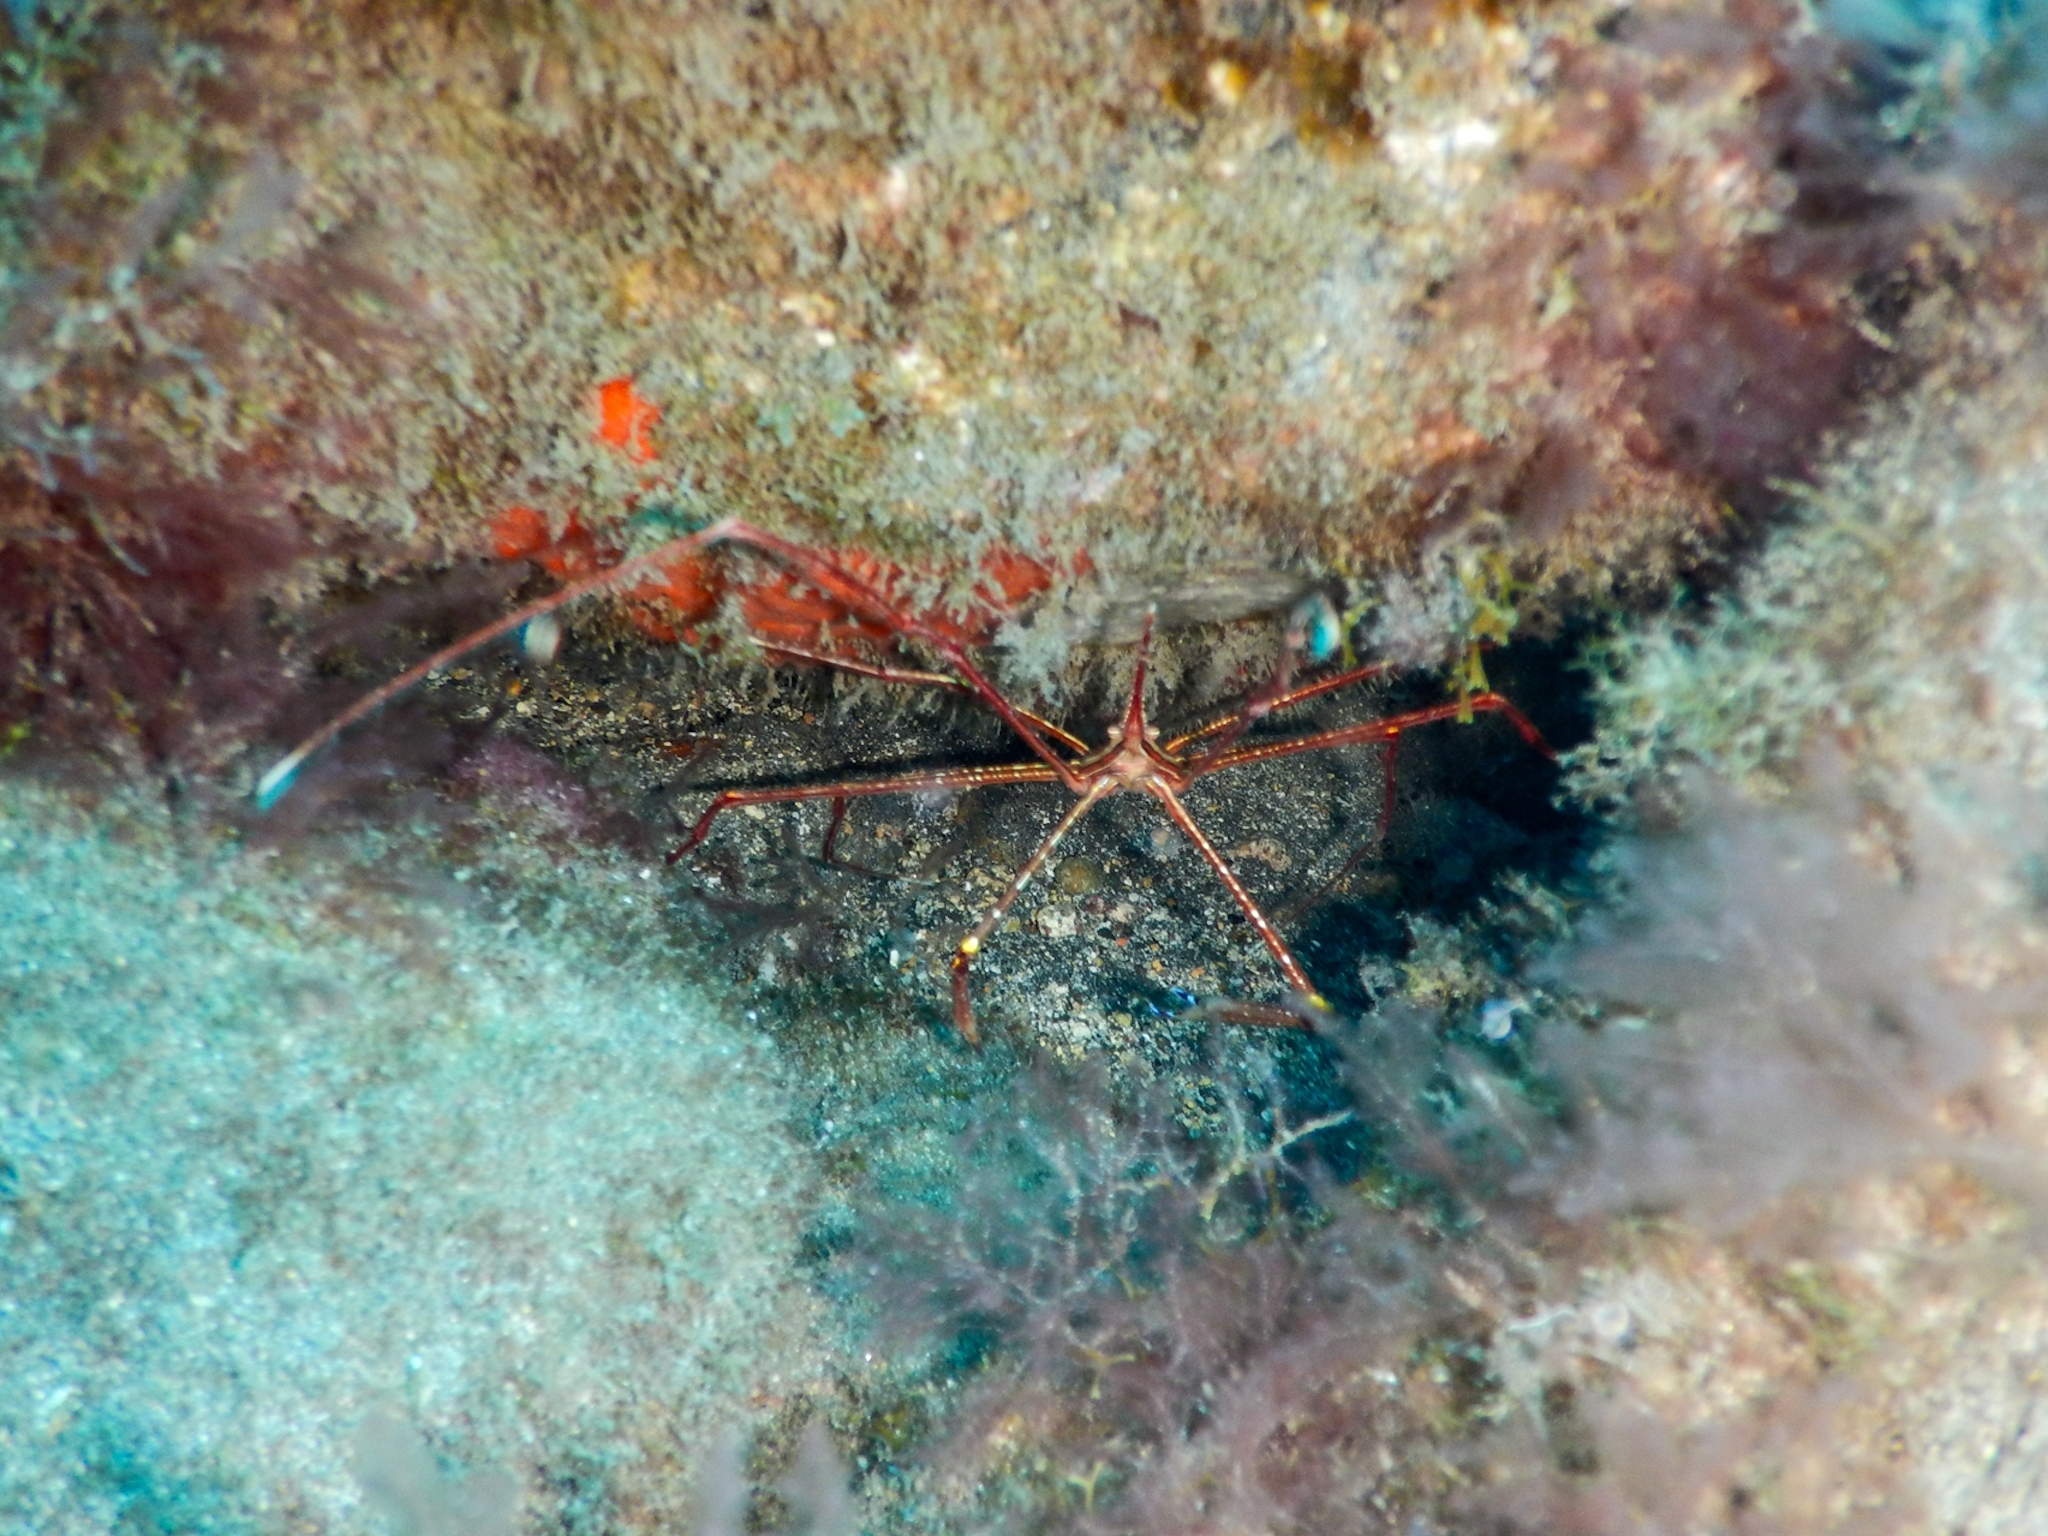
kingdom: Animalia
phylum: Arthropoda
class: Malacostraca
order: Decapoda
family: Inachoididae
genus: Stenorhynchus
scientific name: Stenorhynchus lanceolatus
